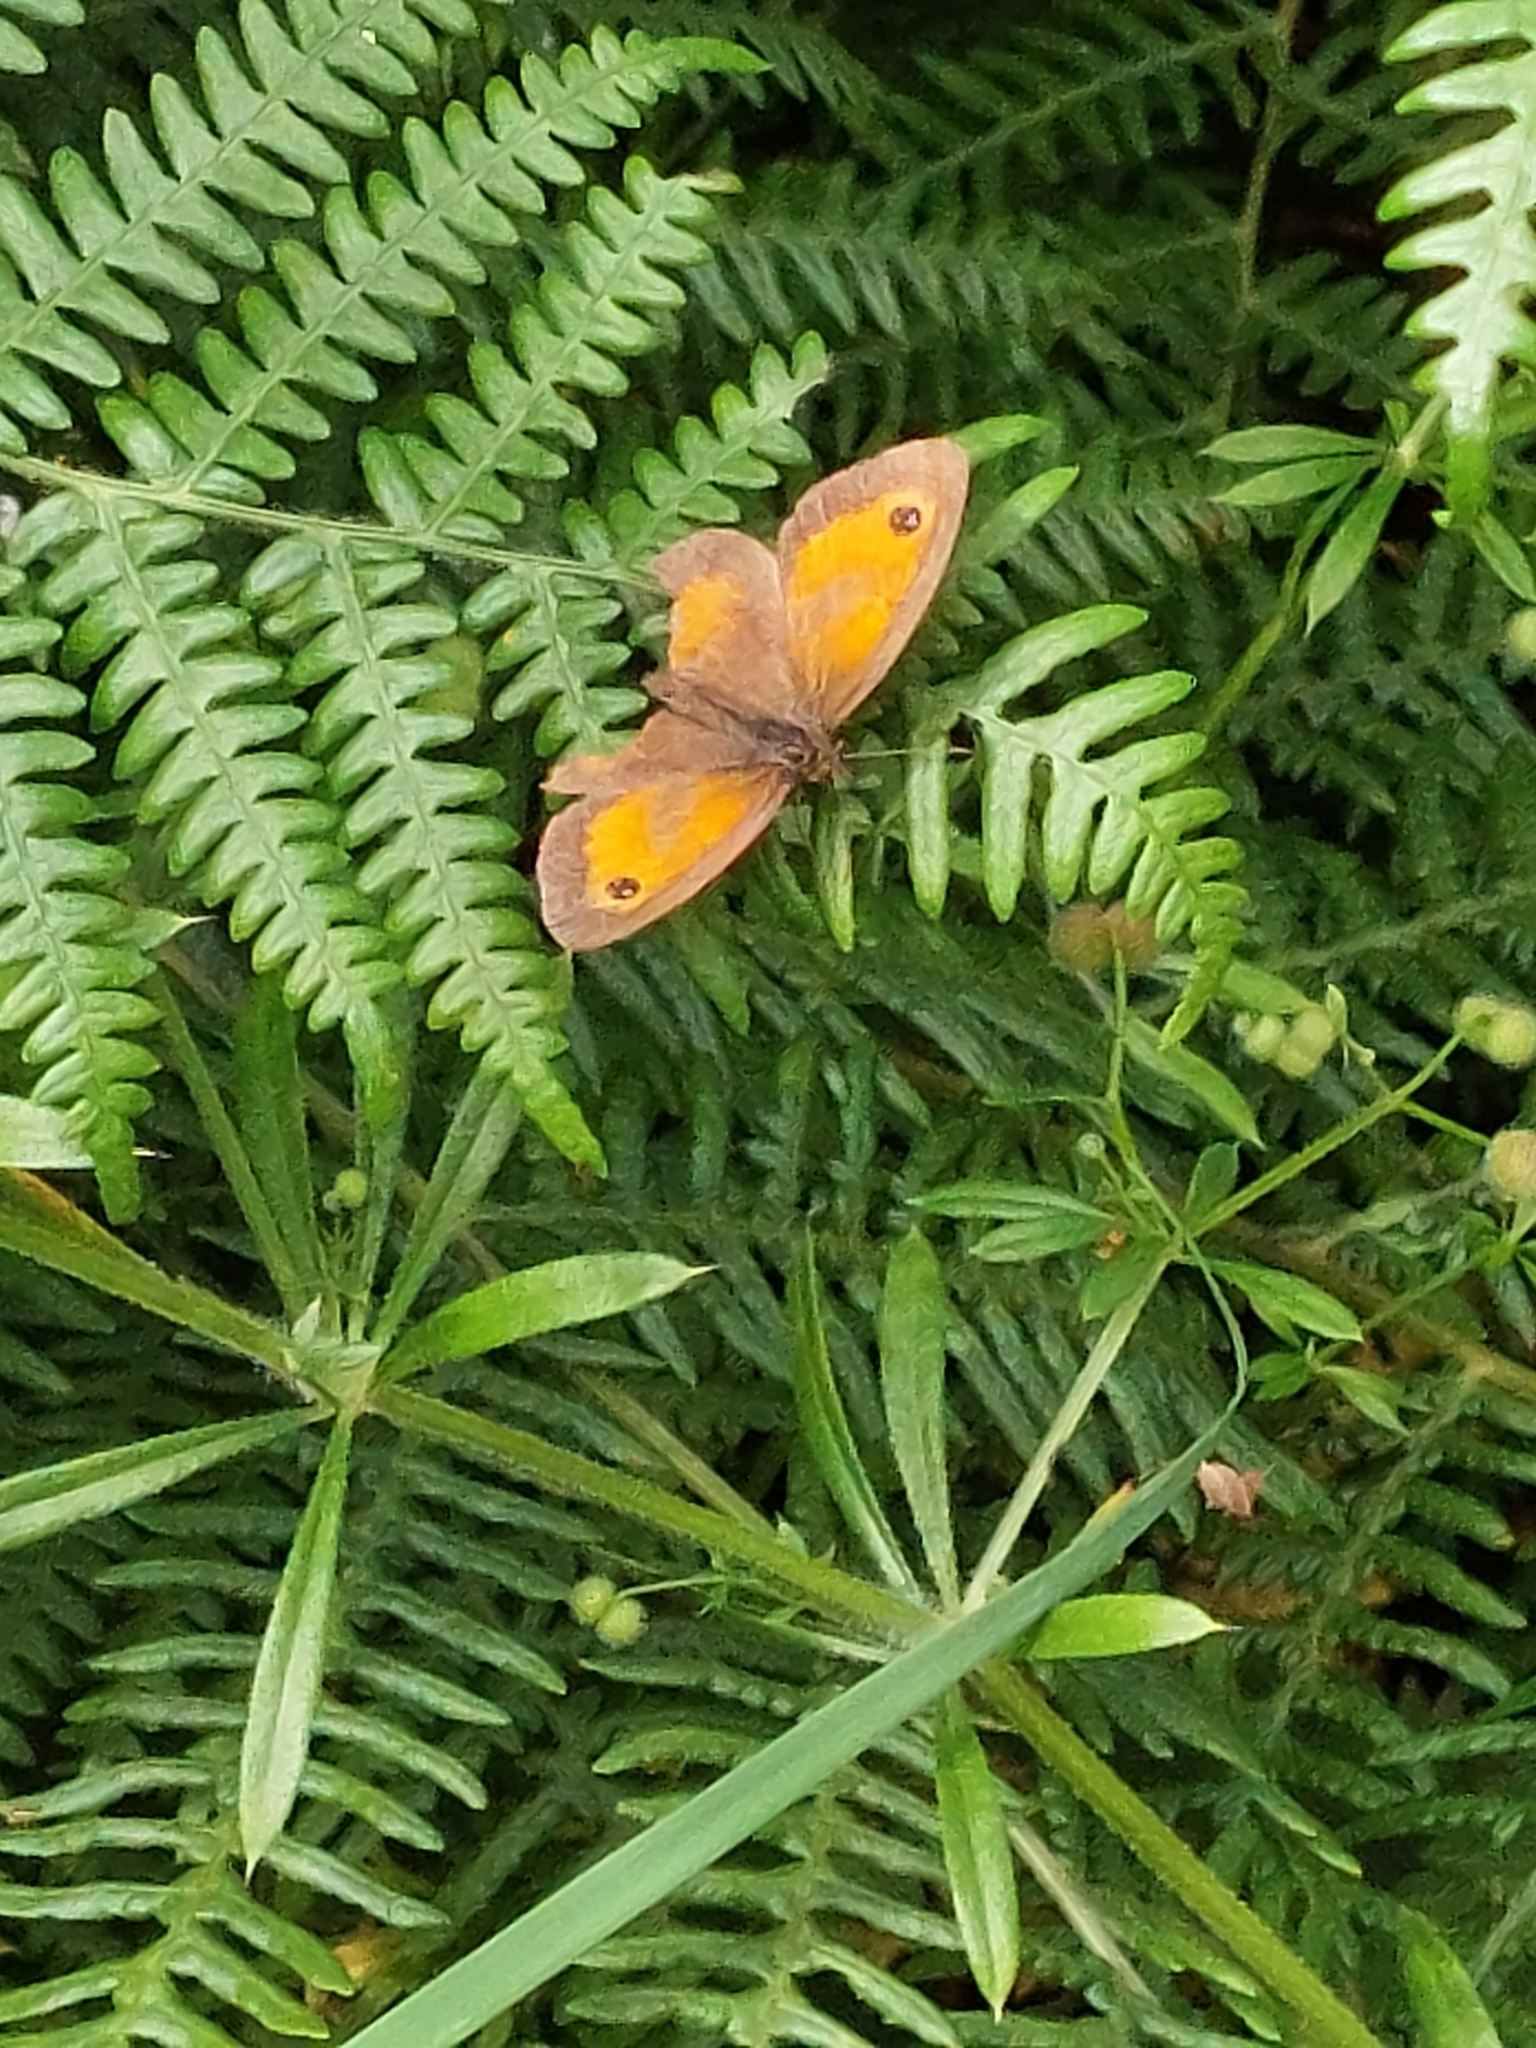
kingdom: Animalia
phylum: Arthropoda
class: Insecta
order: Lepidoptera
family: Nymphalidae
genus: Pyronia
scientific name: Pyronia tithonus
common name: Gatekeeper
